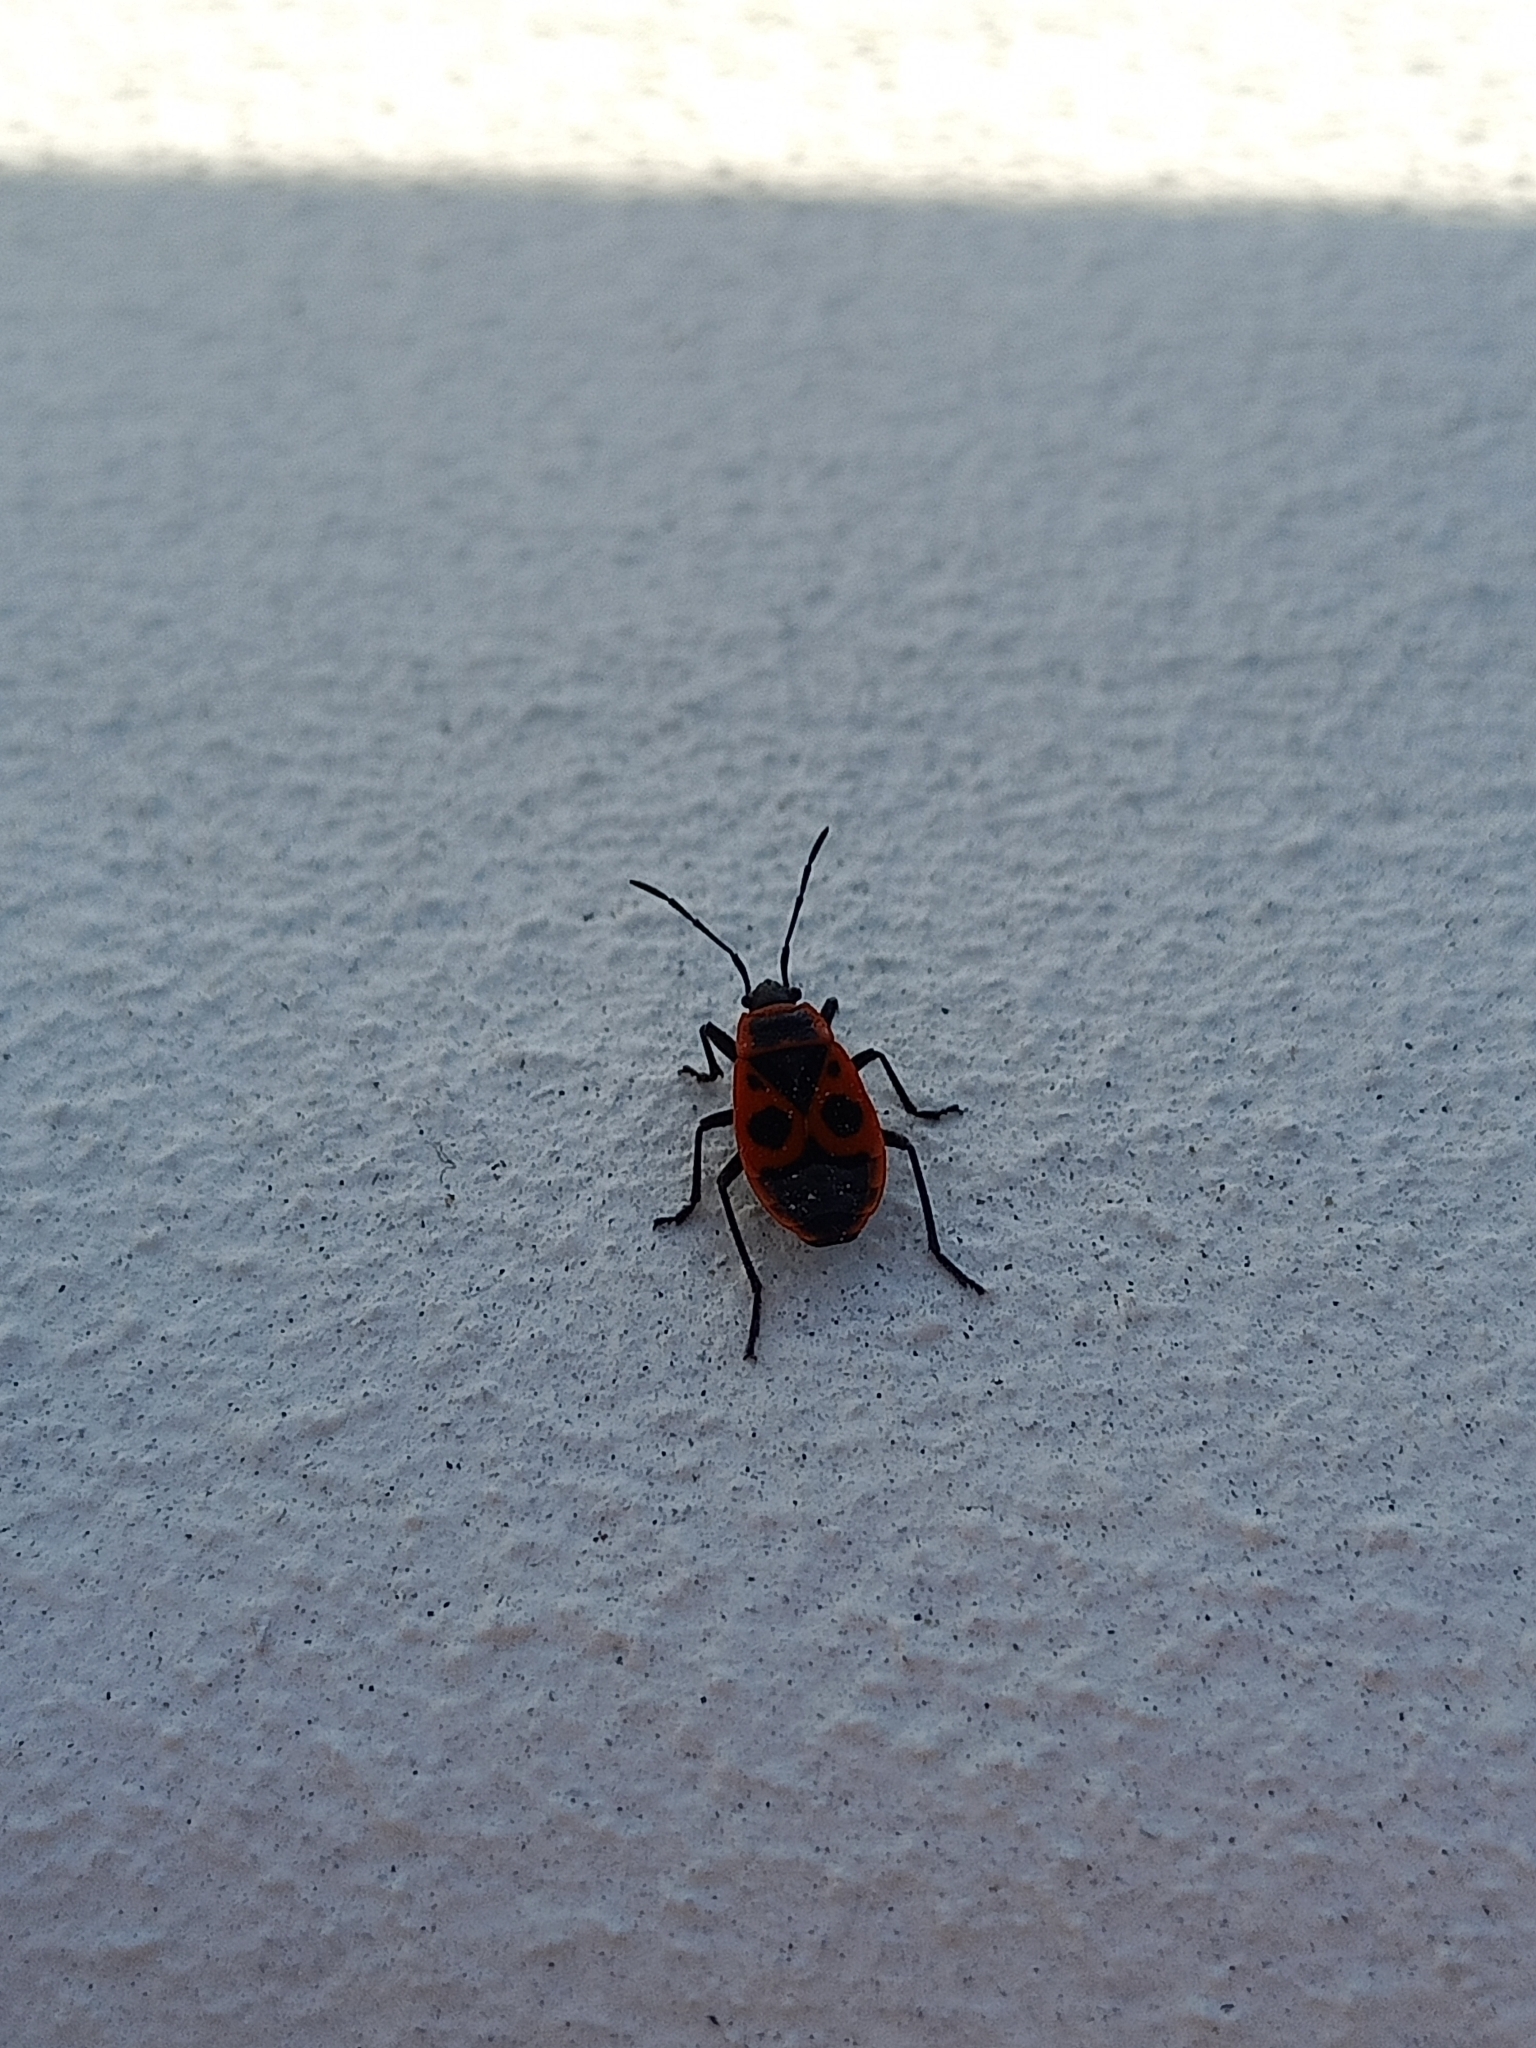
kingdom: Animalia
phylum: Arthropoda
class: Insecta
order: Hemiptera
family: Pyrrhocoridae
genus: Pyrrhocoris
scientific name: Pyrrhocoris apterus
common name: Firebug
